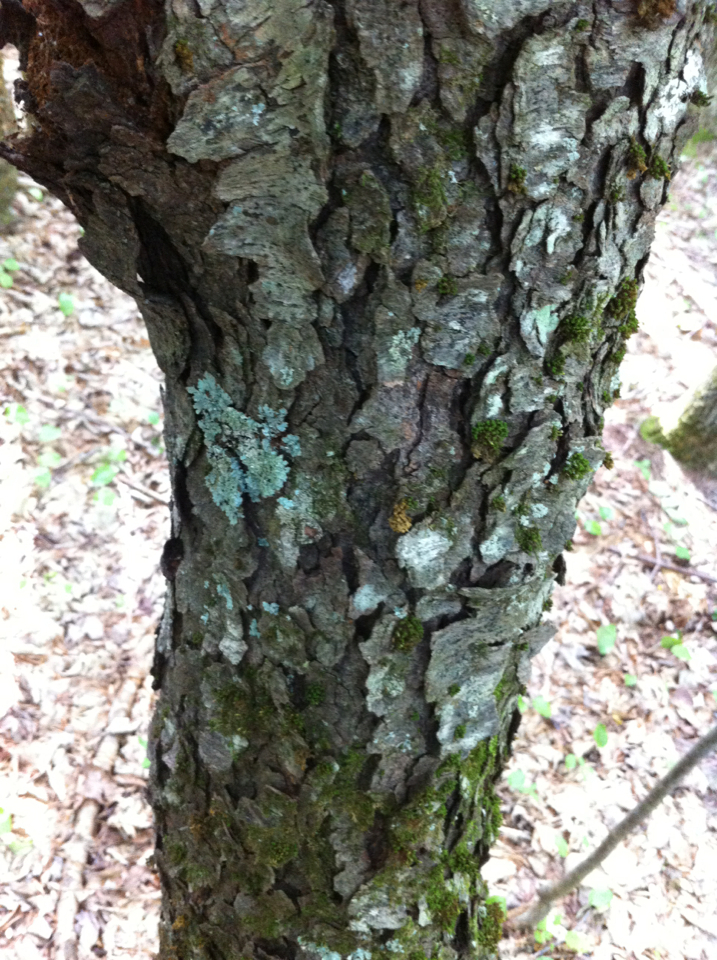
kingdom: Plantae
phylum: Tracheophyta
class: Magnoliopsida
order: Rosales
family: Rosaceae
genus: Prunus
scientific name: Prunus serotina
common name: Black cherry
